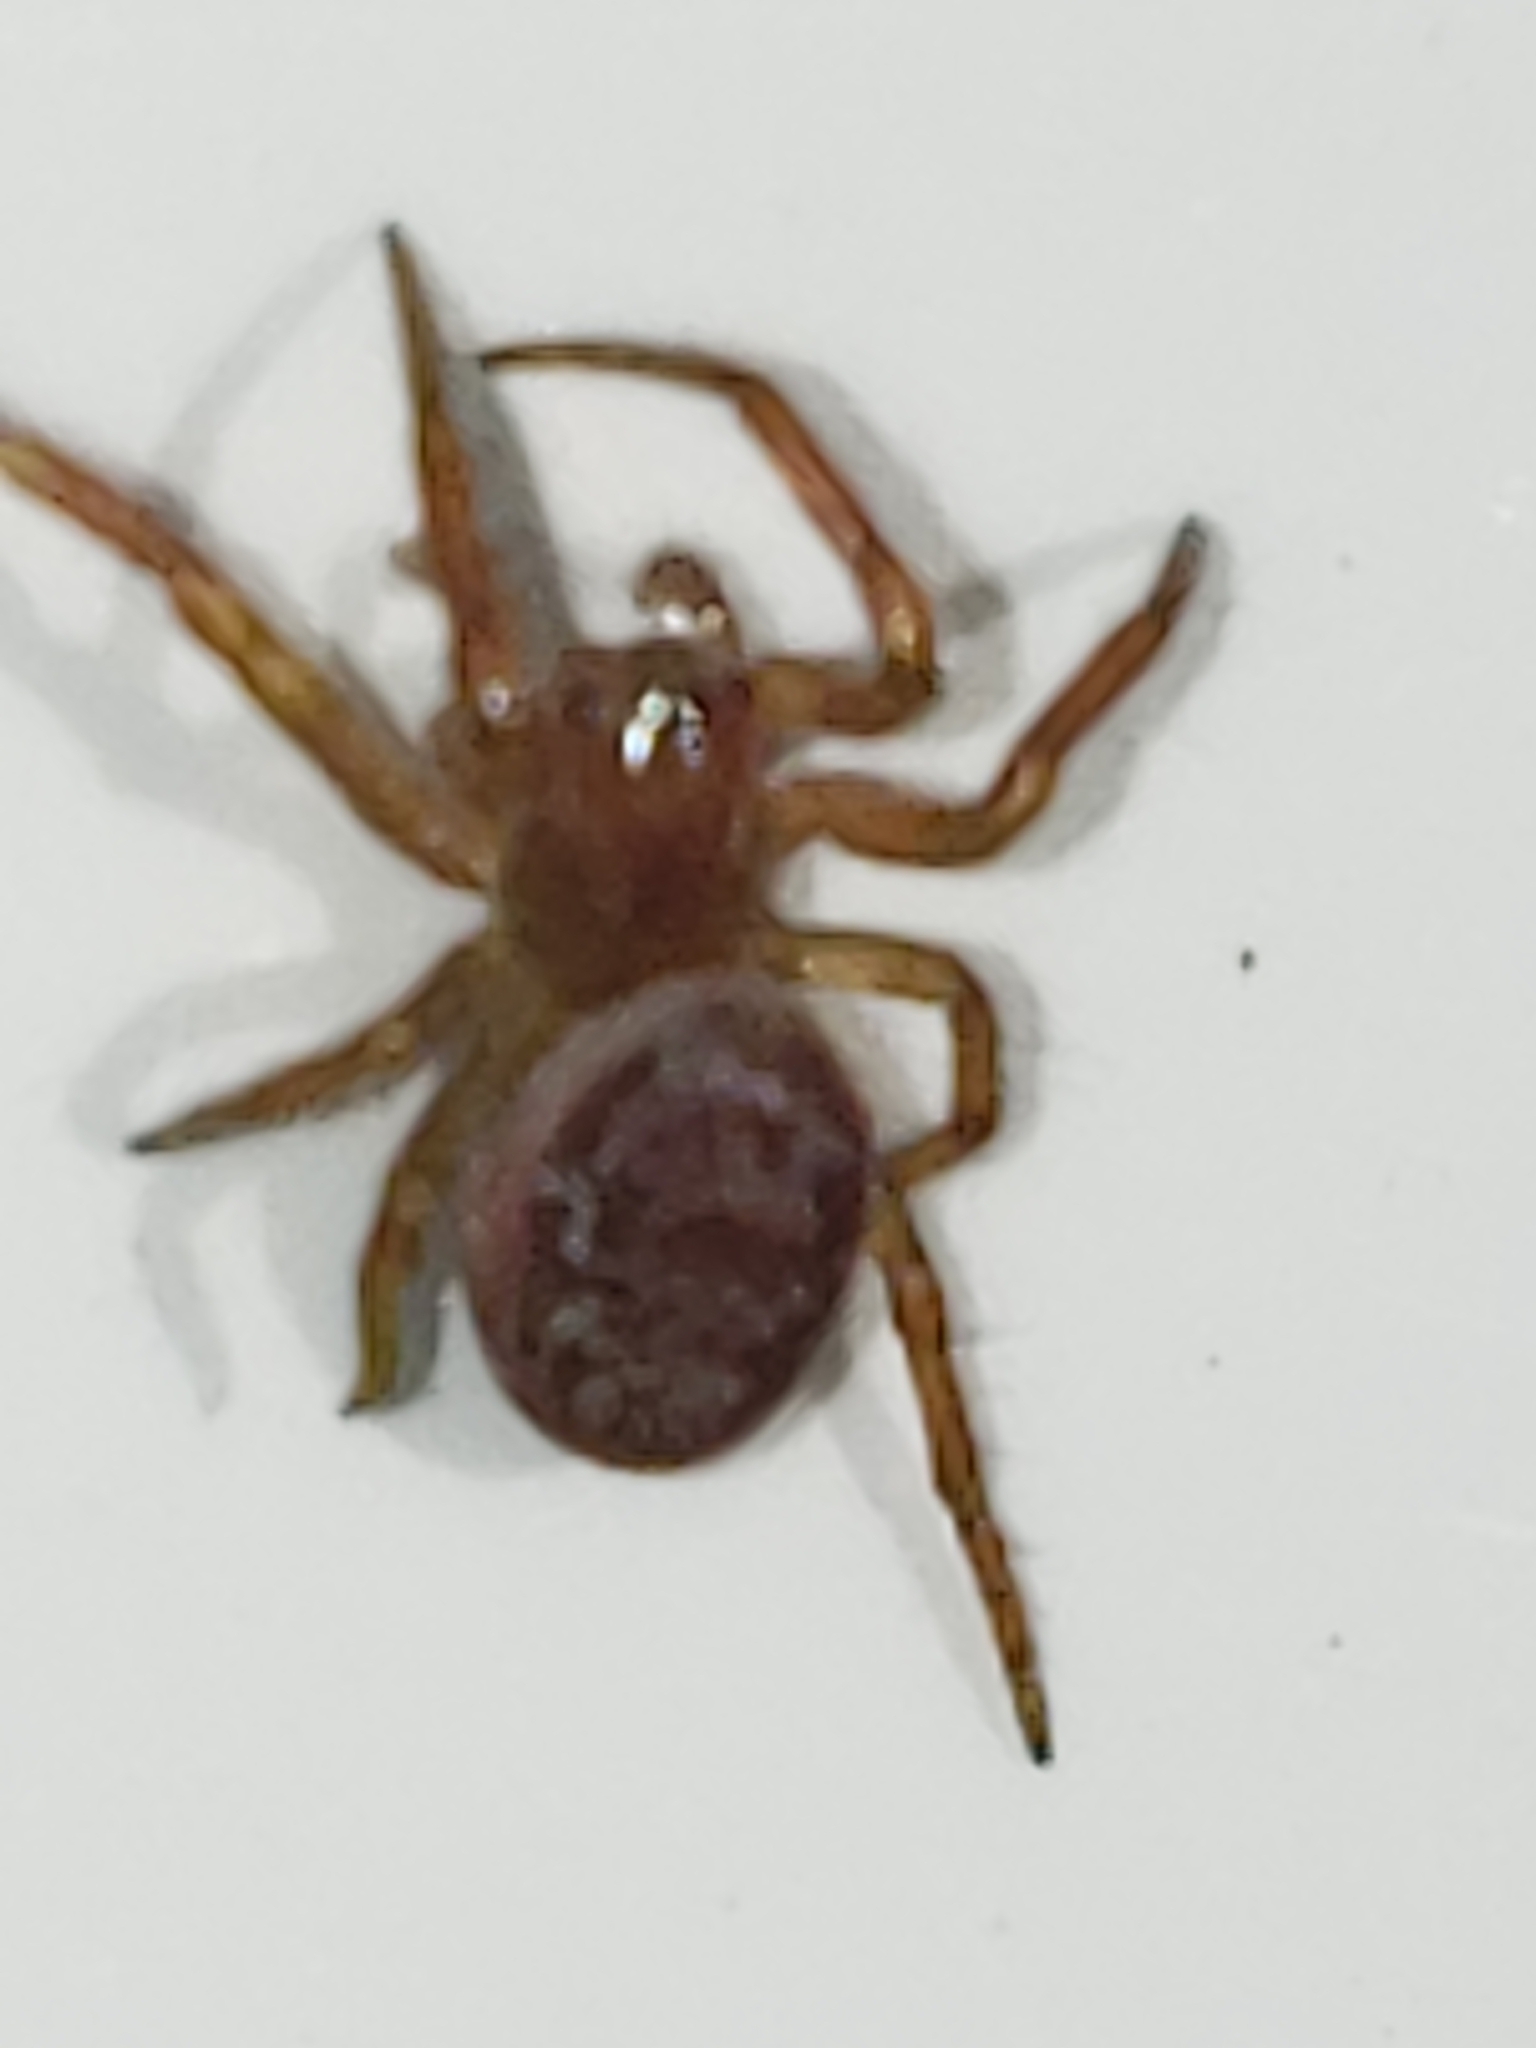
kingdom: Animalia
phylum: Arthropoda
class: Arachnida
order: Araneae
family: Araneidae
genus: Araniella
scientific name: Araniella displicata
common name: Sixspotted orb weaver
